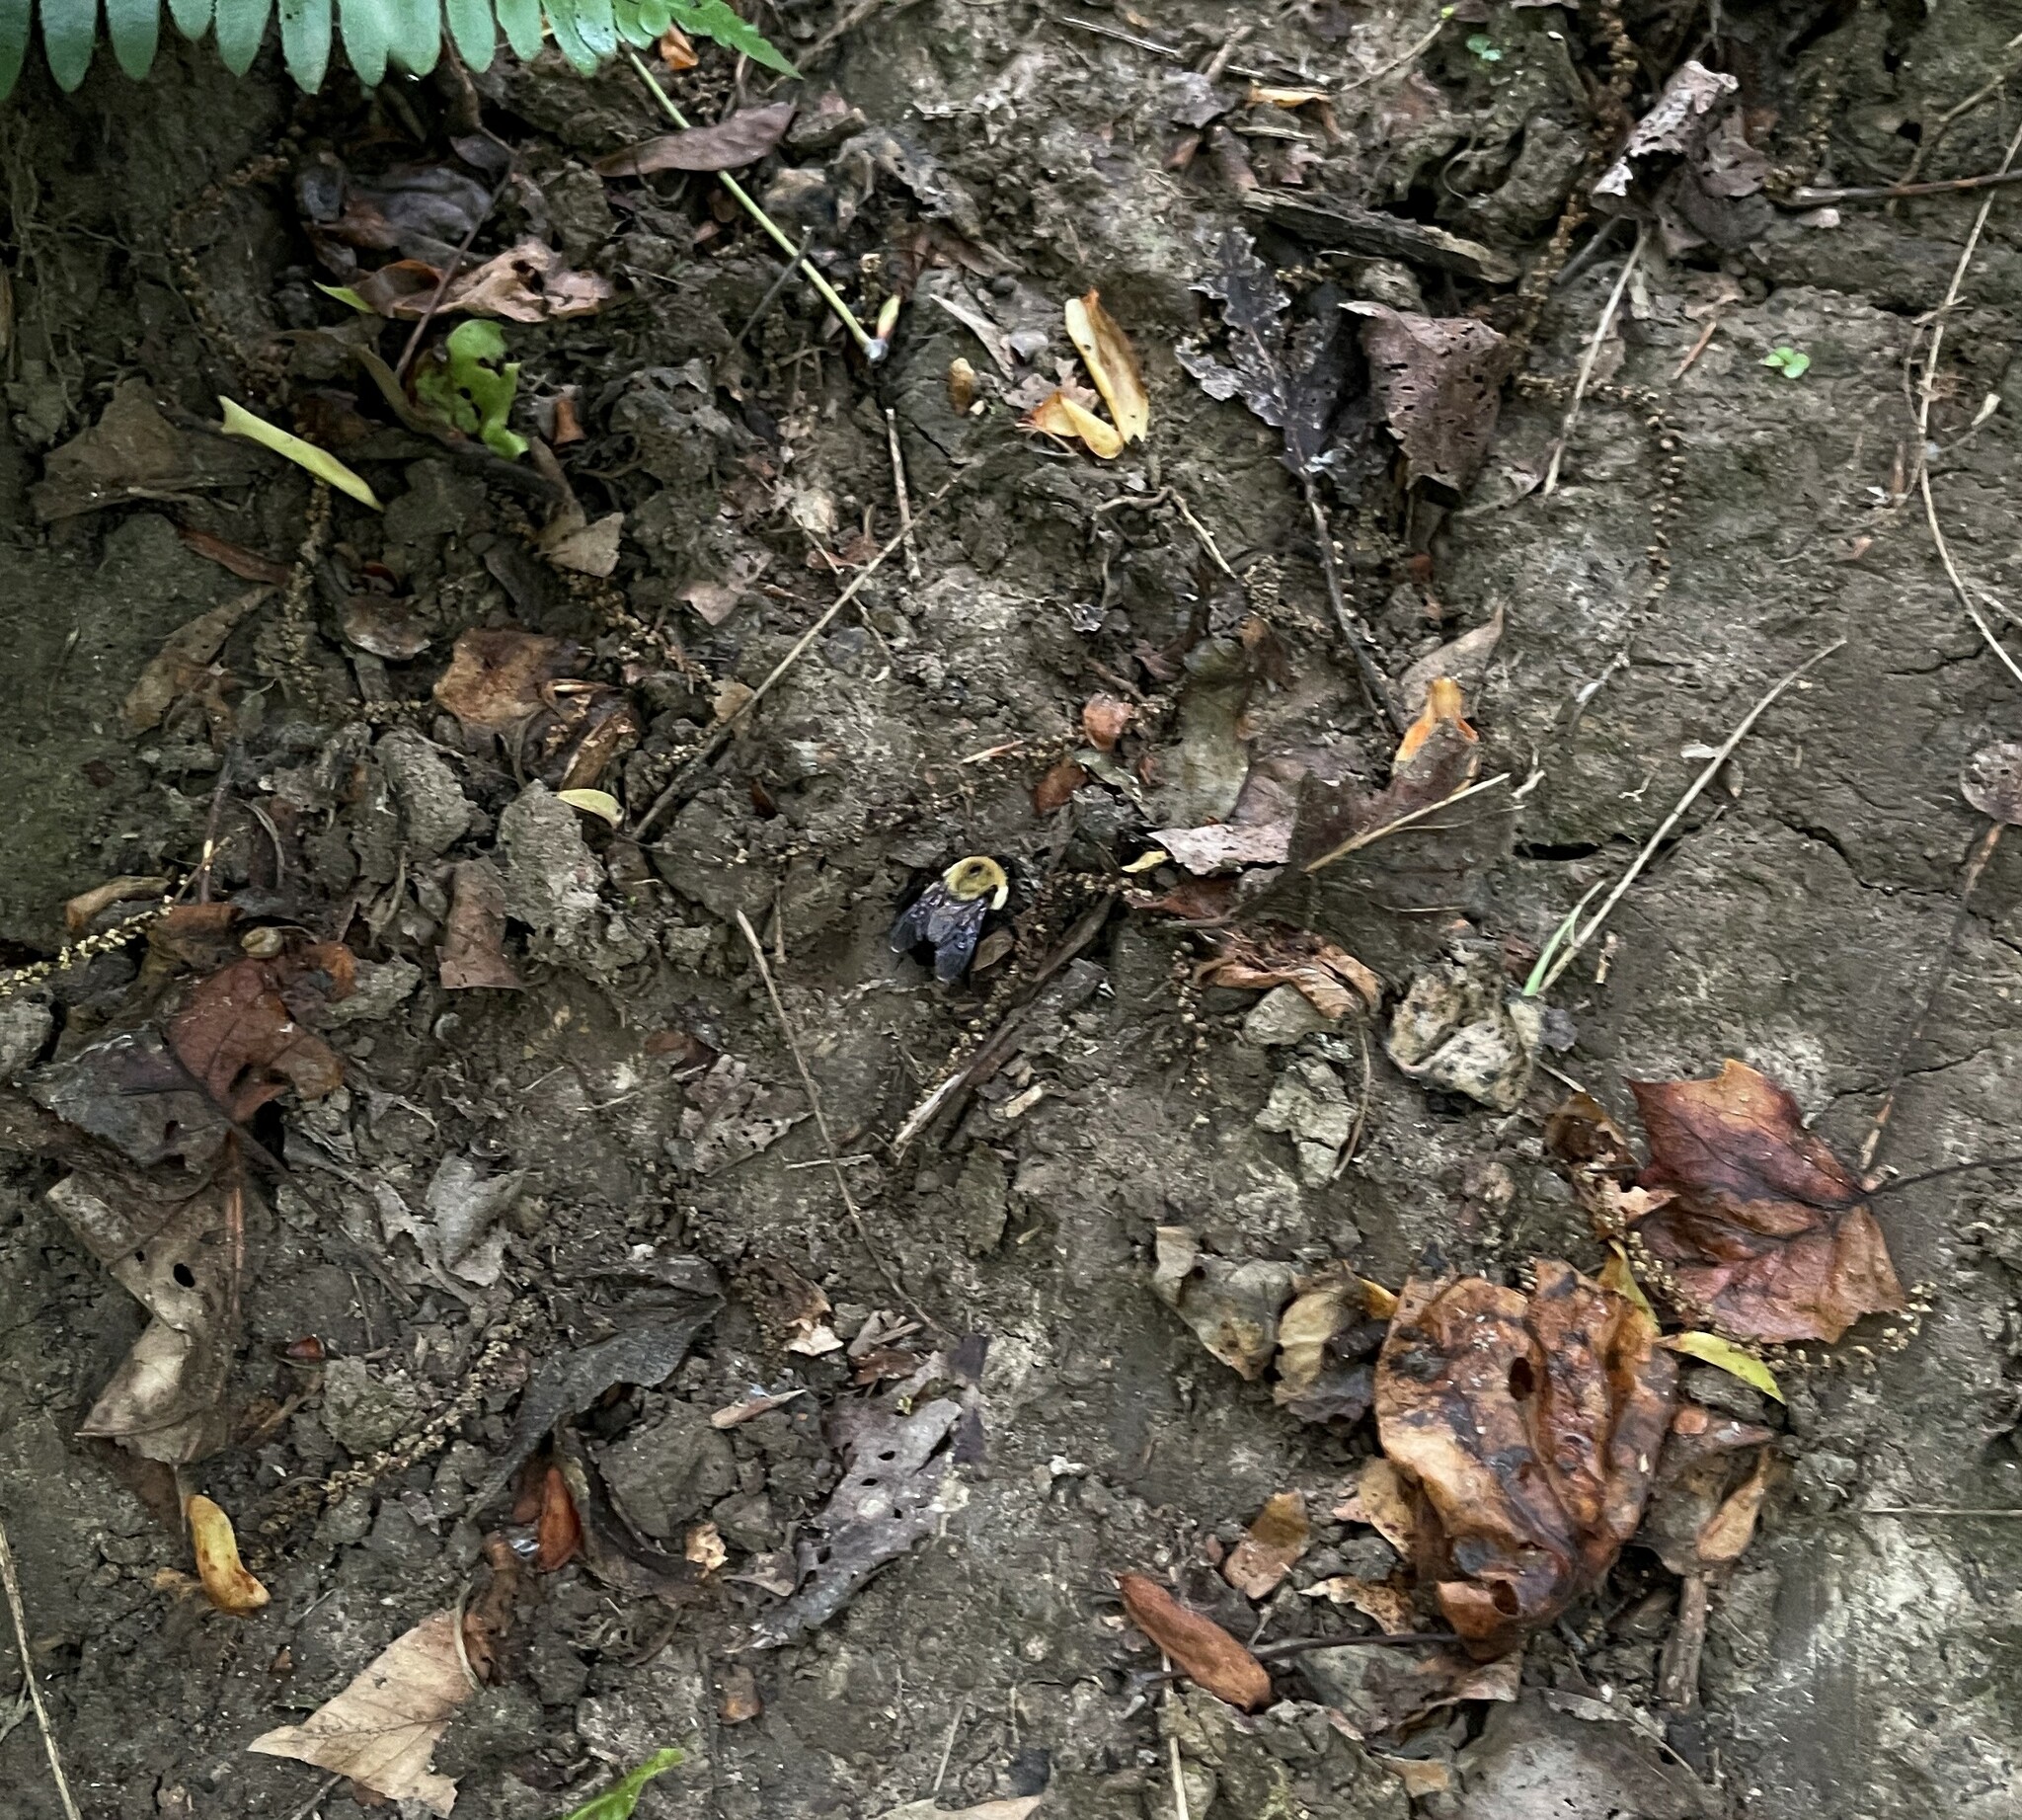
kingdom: Animalia
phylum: Arthropoda
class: Insecta
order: Hymenoptera
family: Apidae
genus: Bombus
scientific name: Bombus griseocollis
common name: Brown-belted bumble bee
